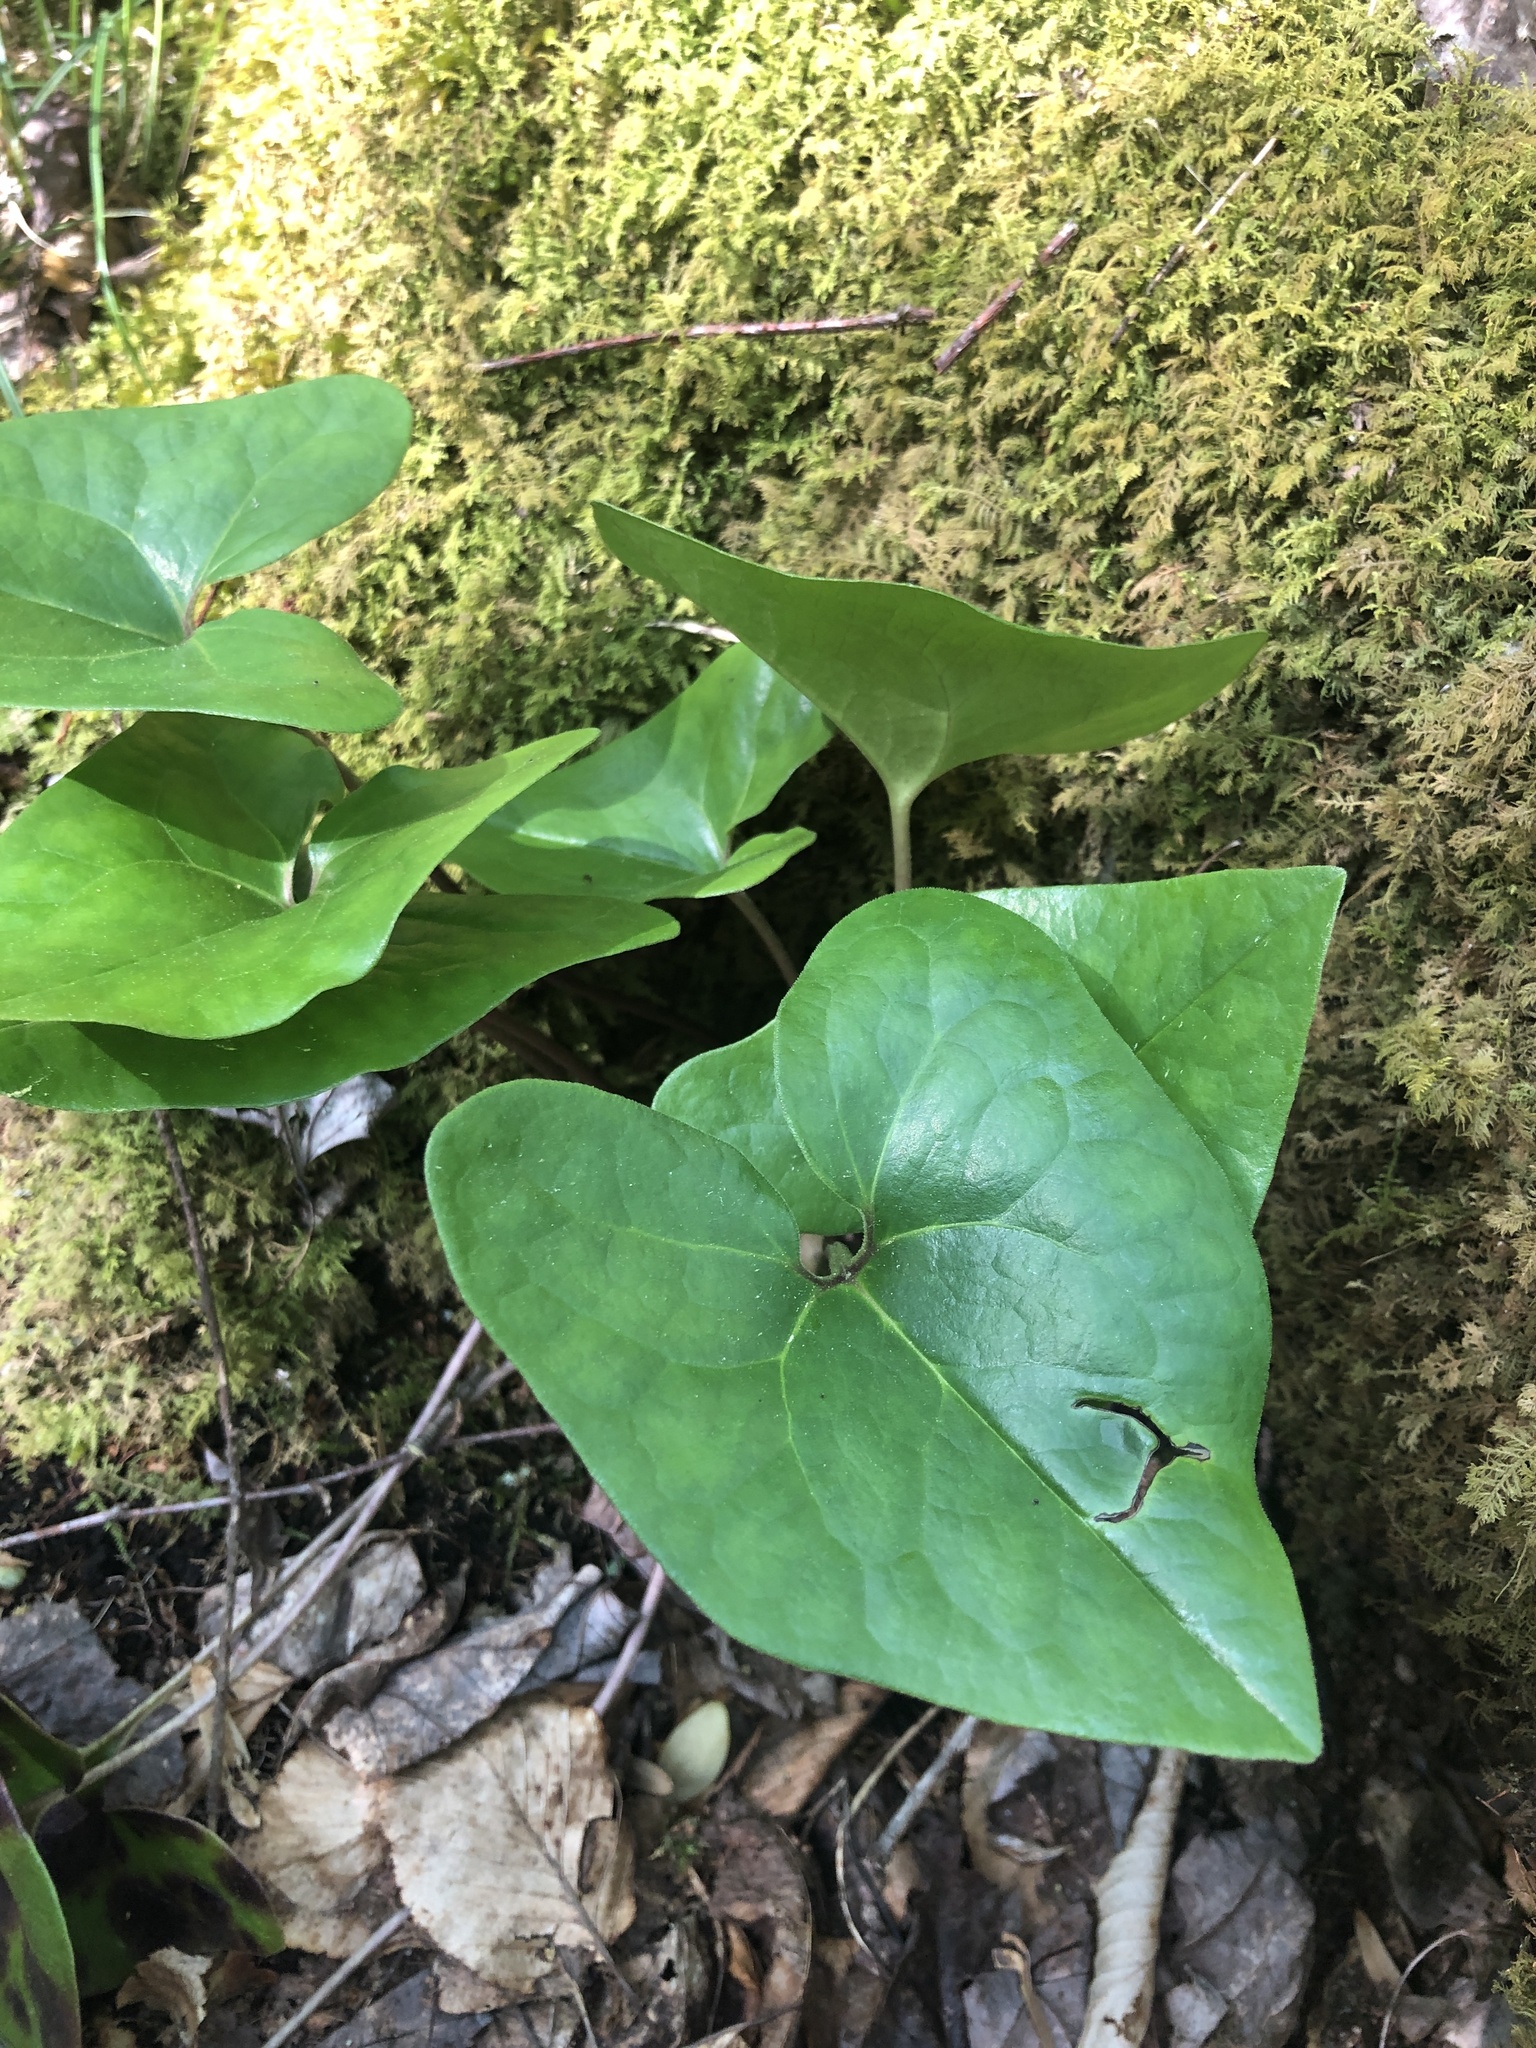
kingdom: Plantae
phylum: Tracheophyta
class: Magnoliopsida
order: Piperales
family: Aristolochiaceae
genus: Hexastylis
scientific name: Hexastylis arifolia
